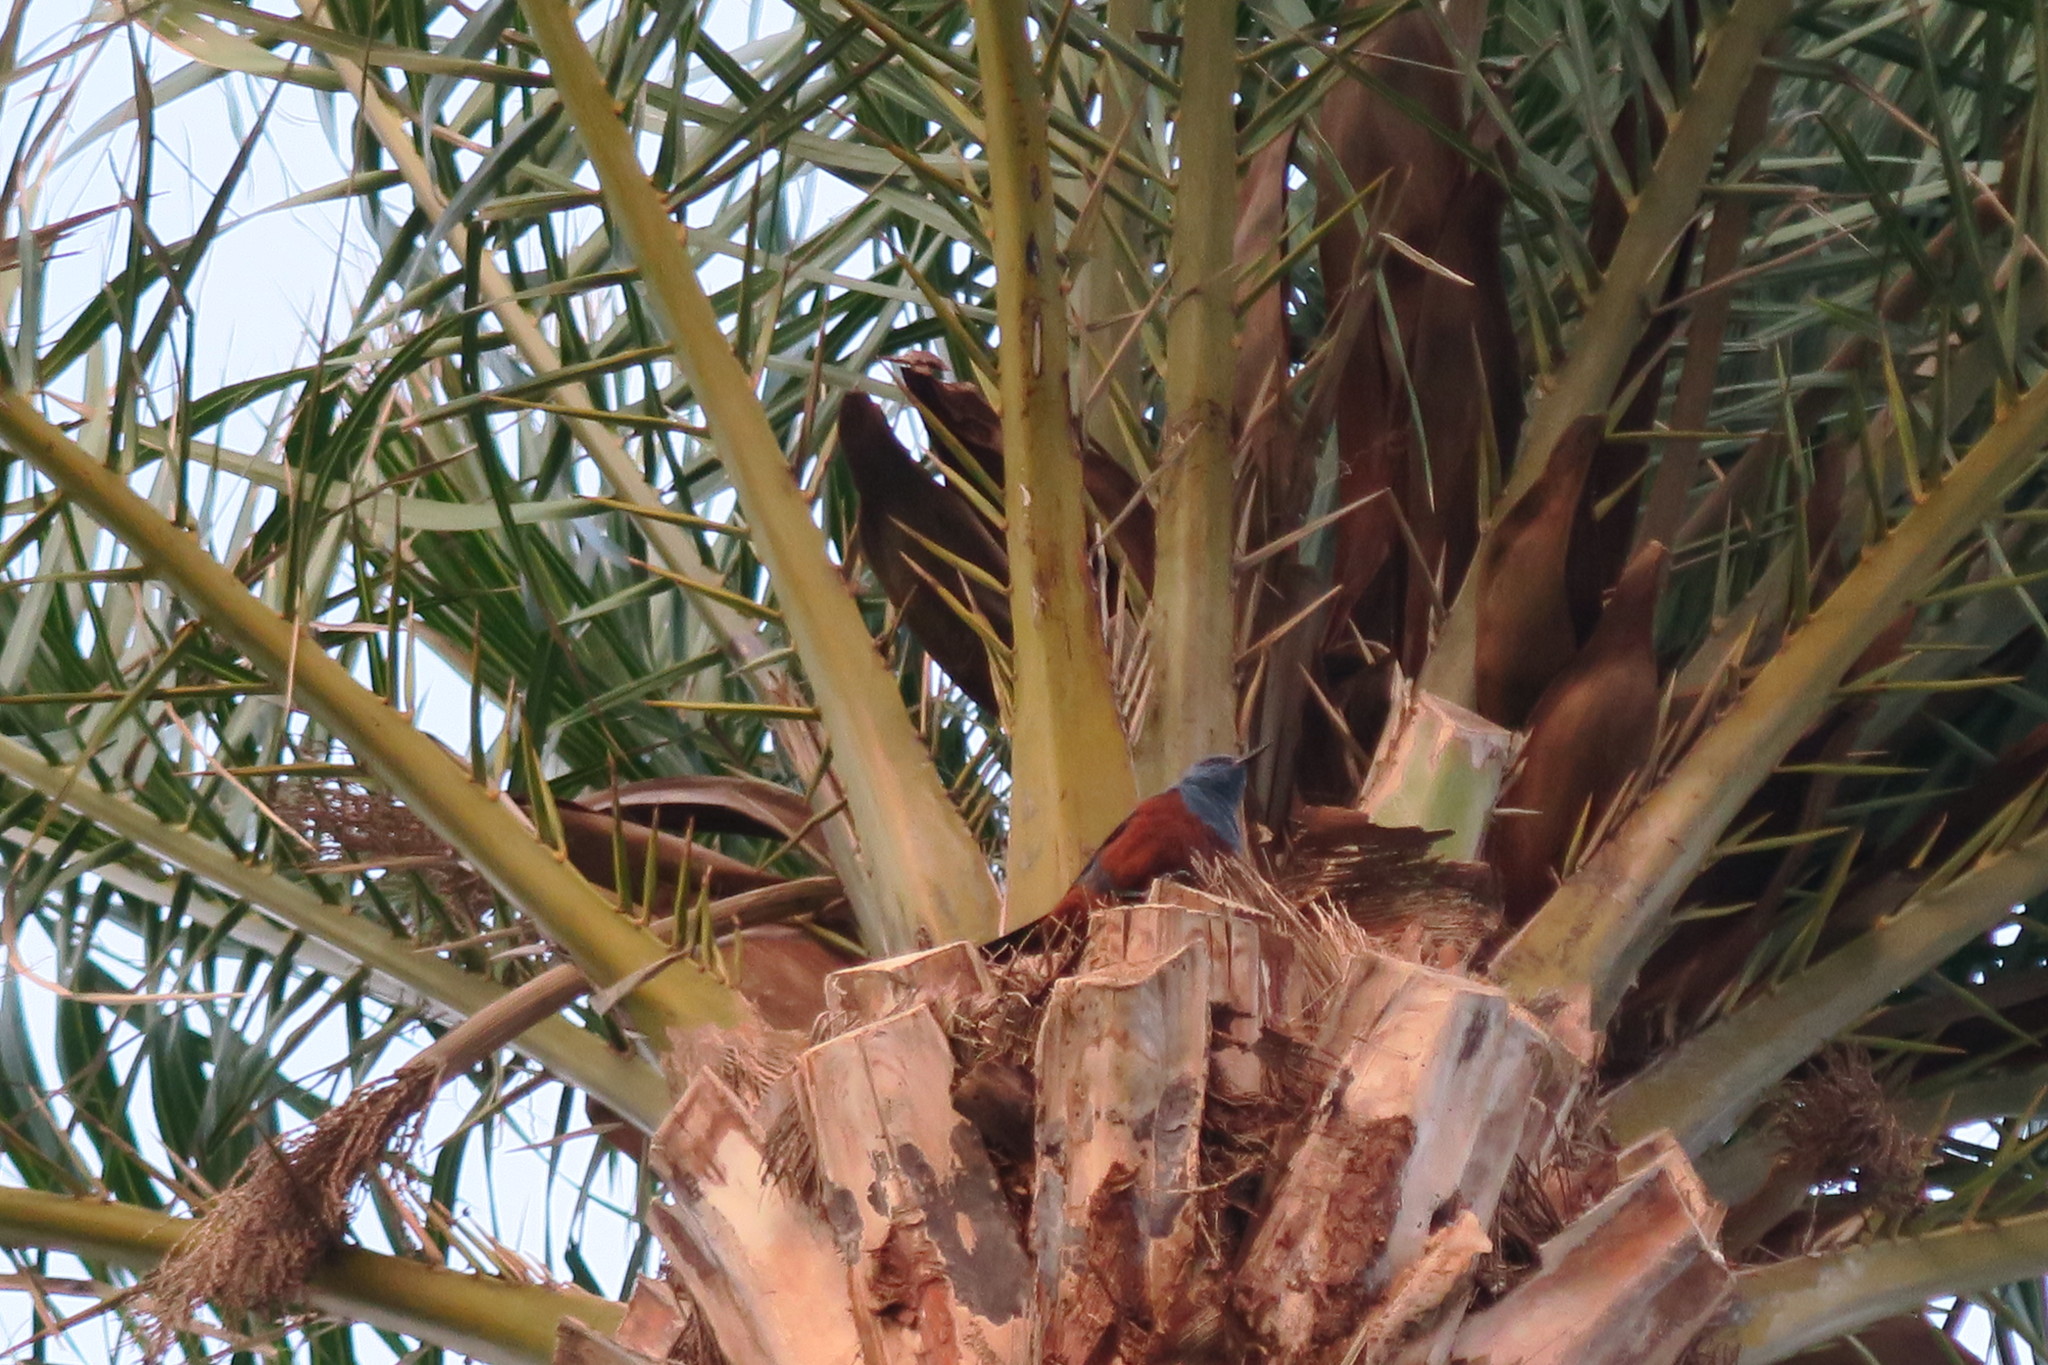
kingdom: Animalia
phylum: Chordata
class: Aves
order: Passeriformes
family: Muscicapidae
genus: Monticola
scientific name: Monticola solitarius
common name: Blue rock thrush
